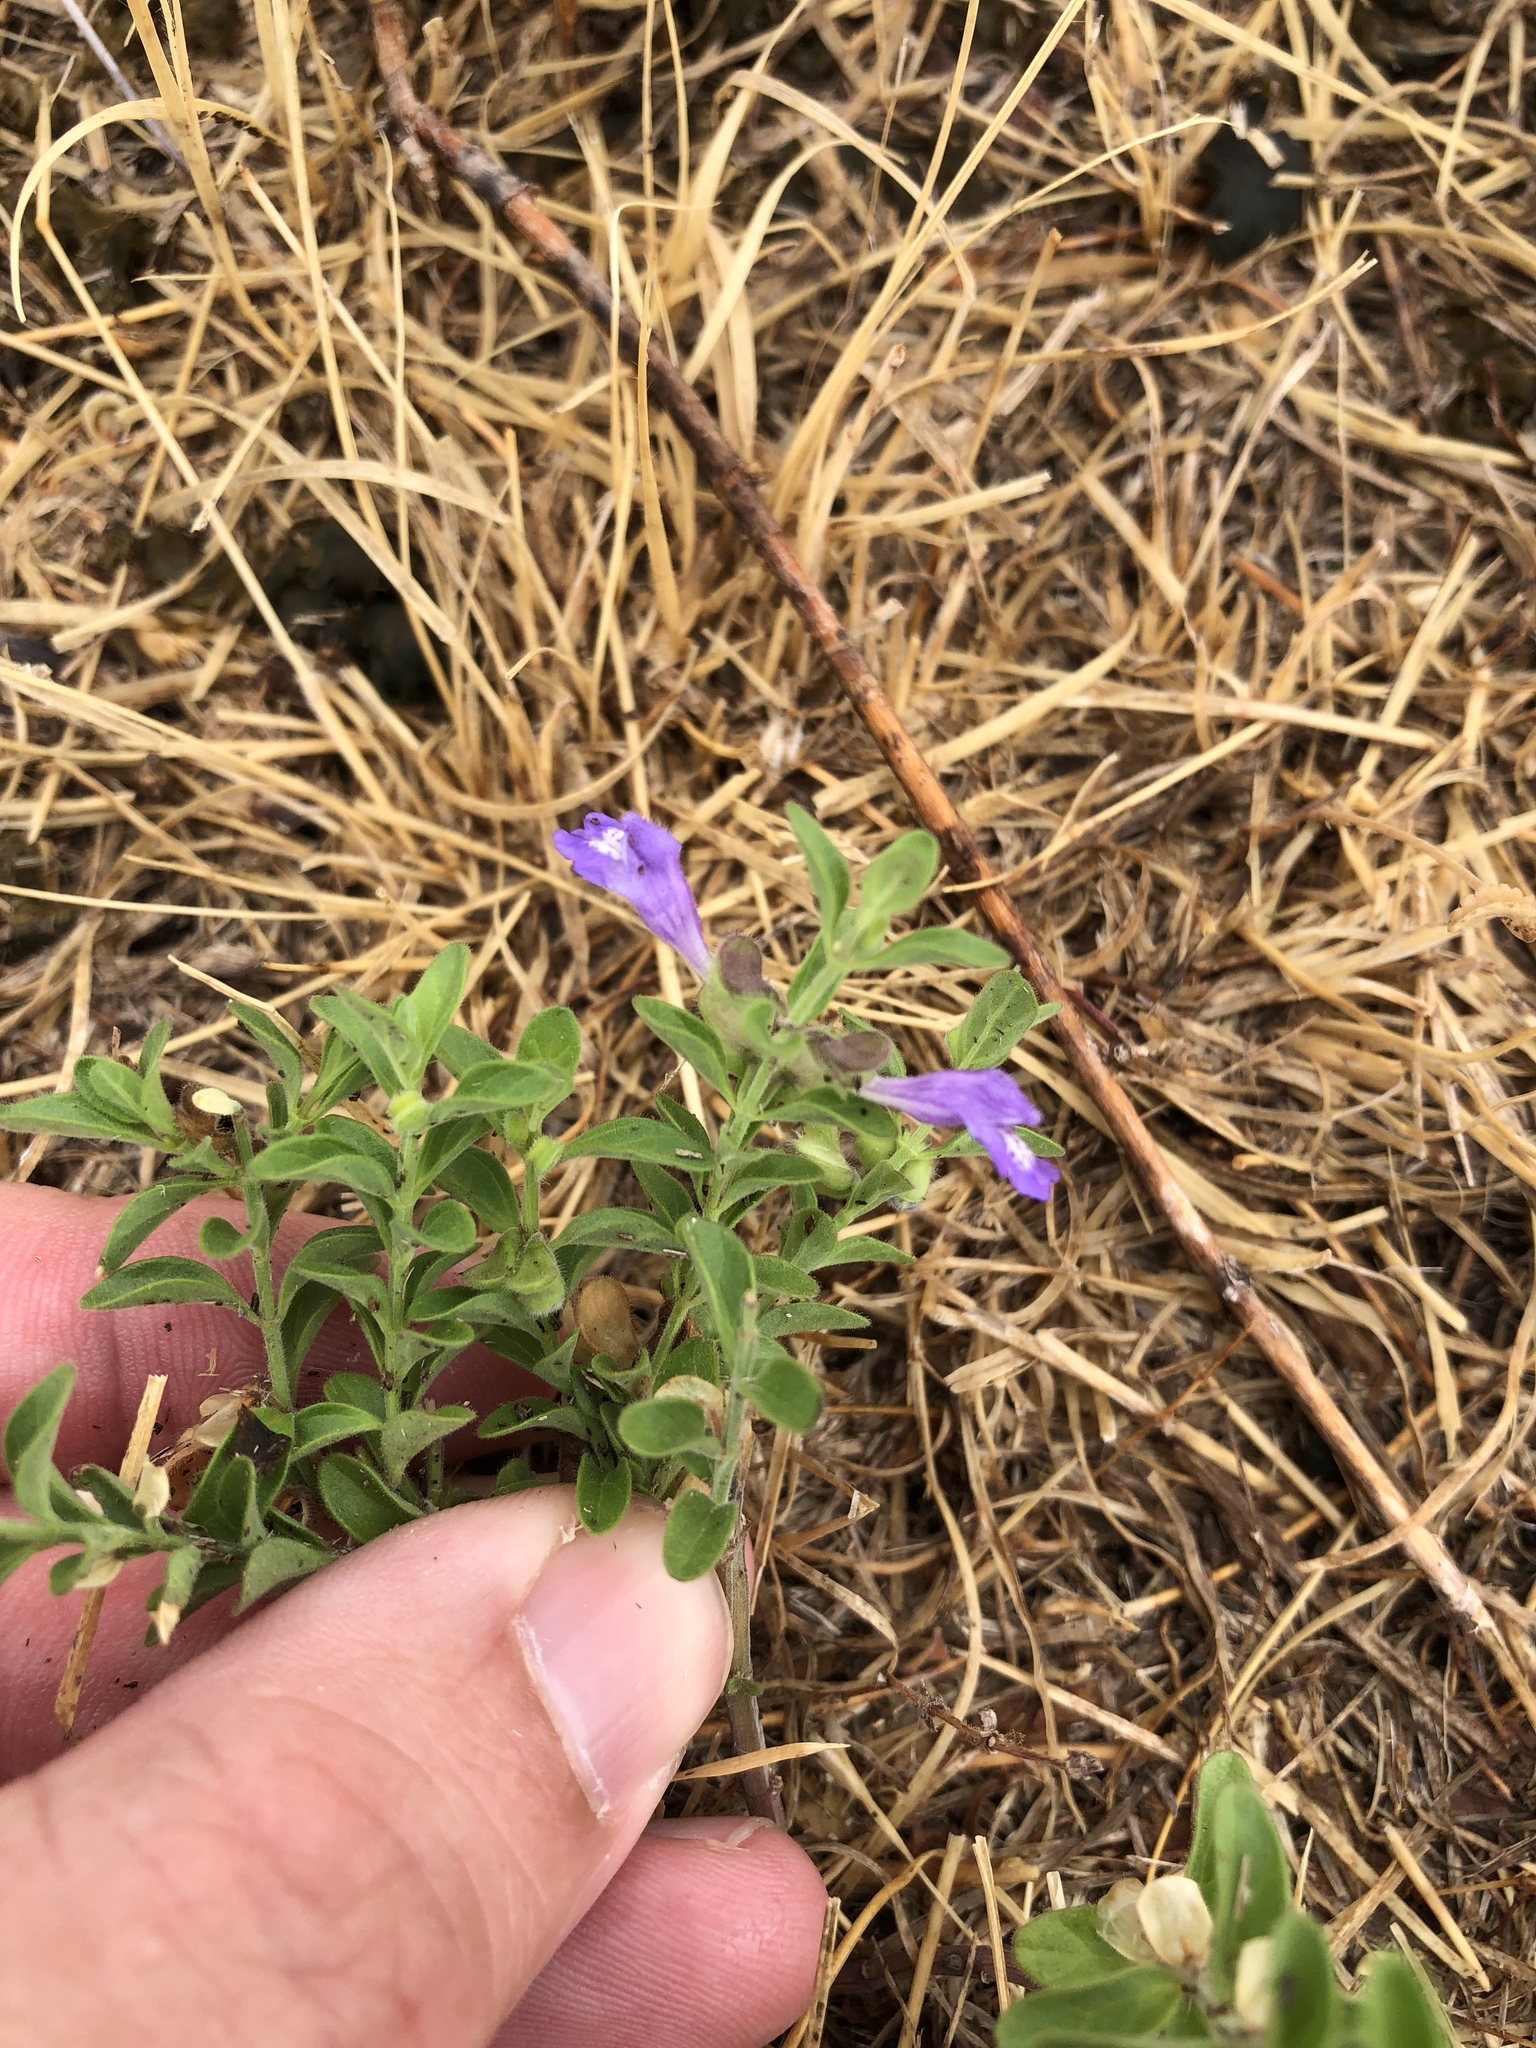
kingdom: Plantae
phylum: Tracheophyta
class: Magnoliopsida
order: Lamiales
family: Lamiaceae
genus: Scutellaria
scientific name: Scutellaria drummondii
